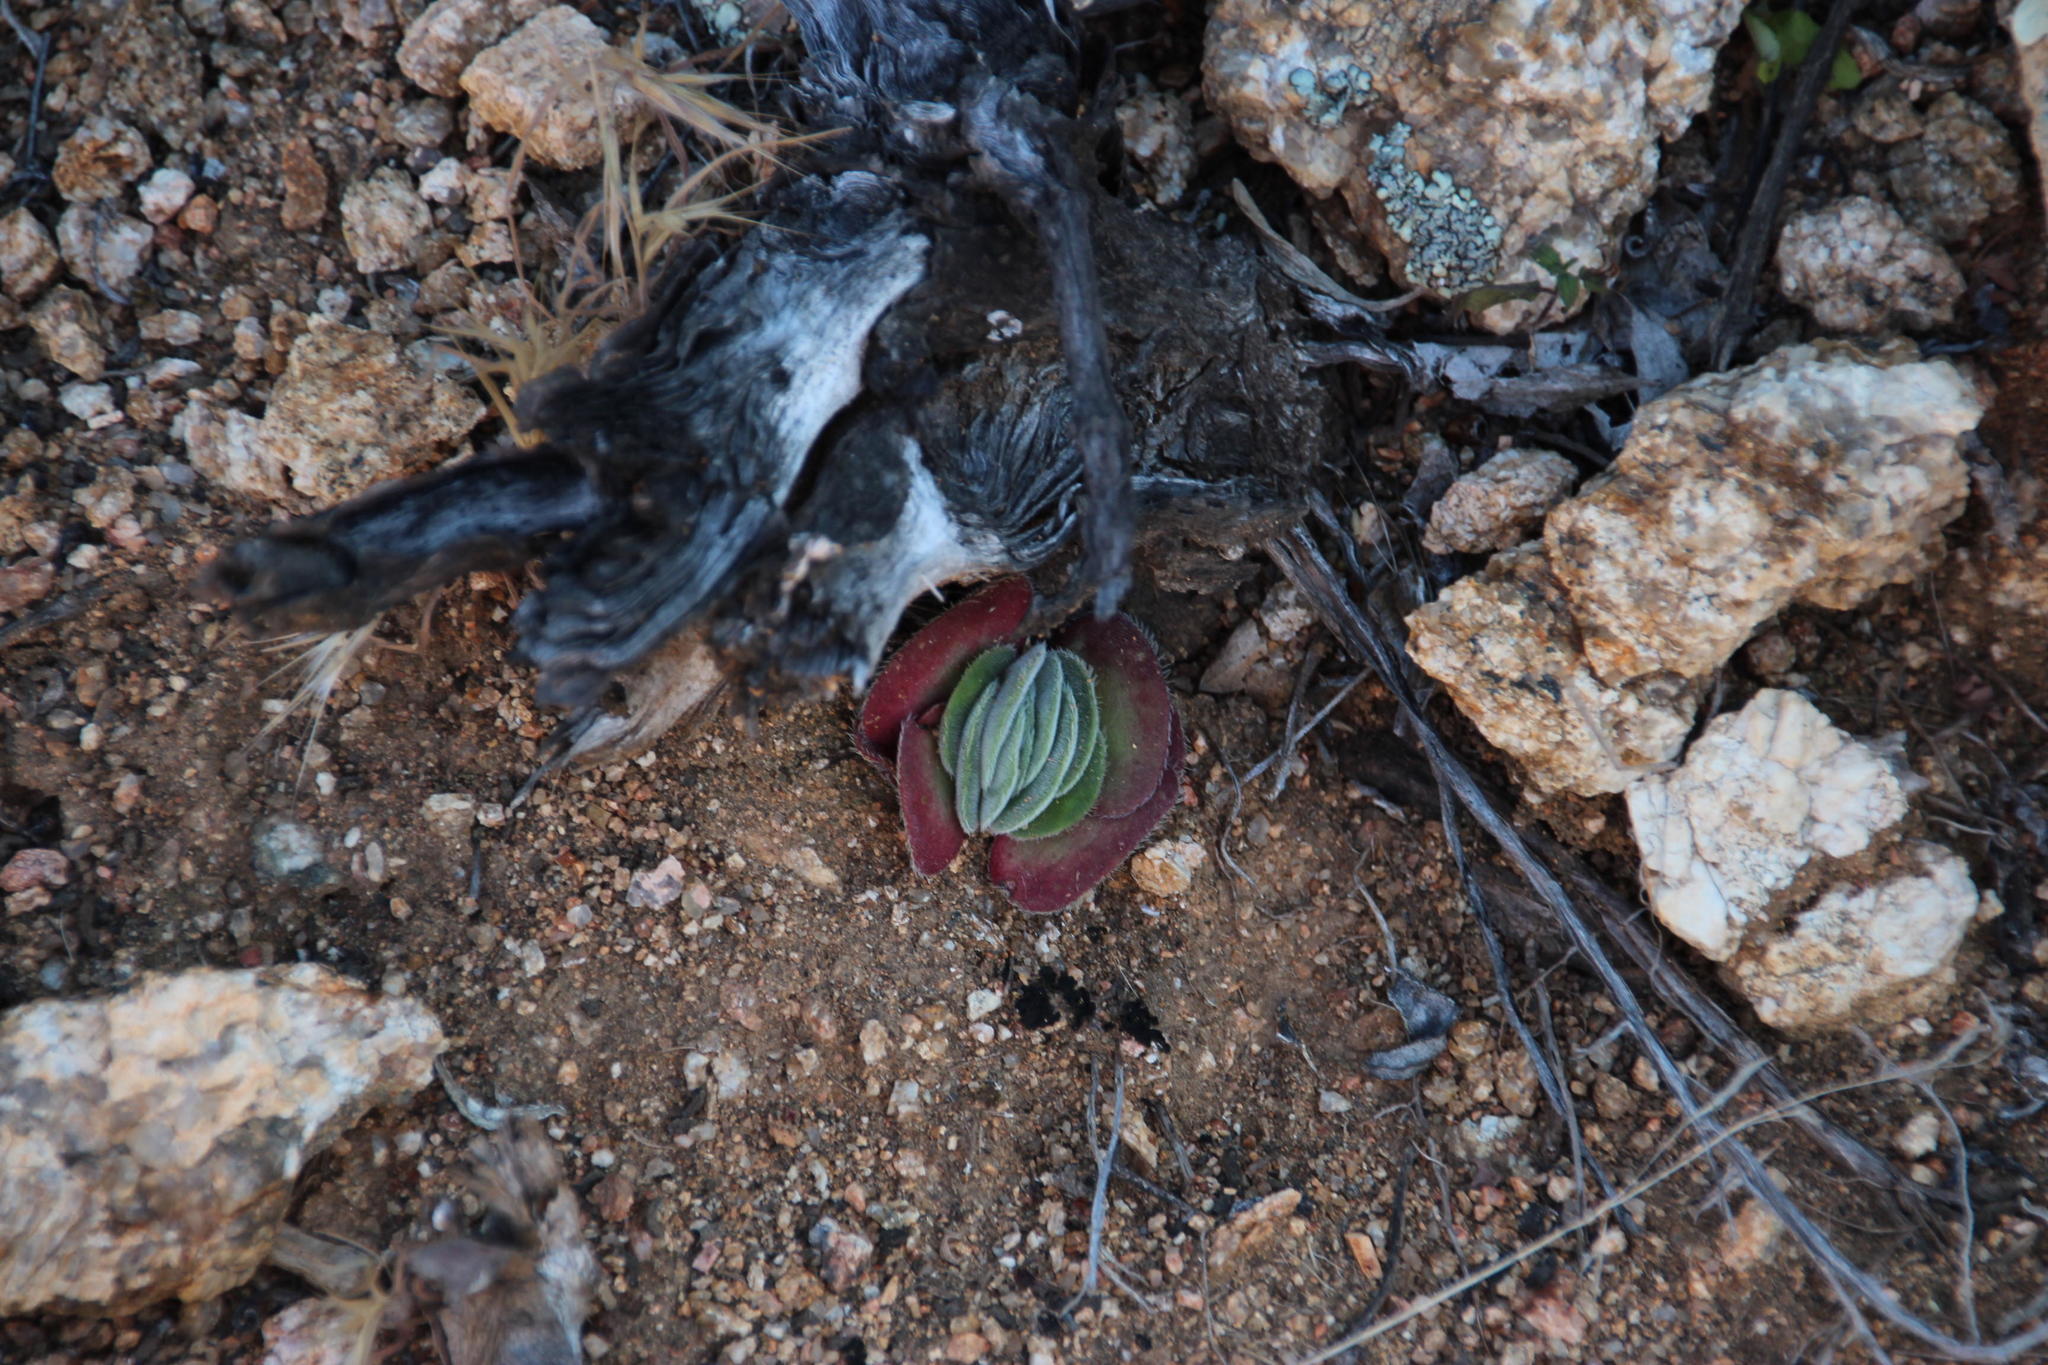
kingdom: Plantae
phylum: Tracheophyta
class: Magnoliopsida
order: Saxifragales
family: Crassulaceae
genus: Crassula
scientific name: Crassula tomentosa
